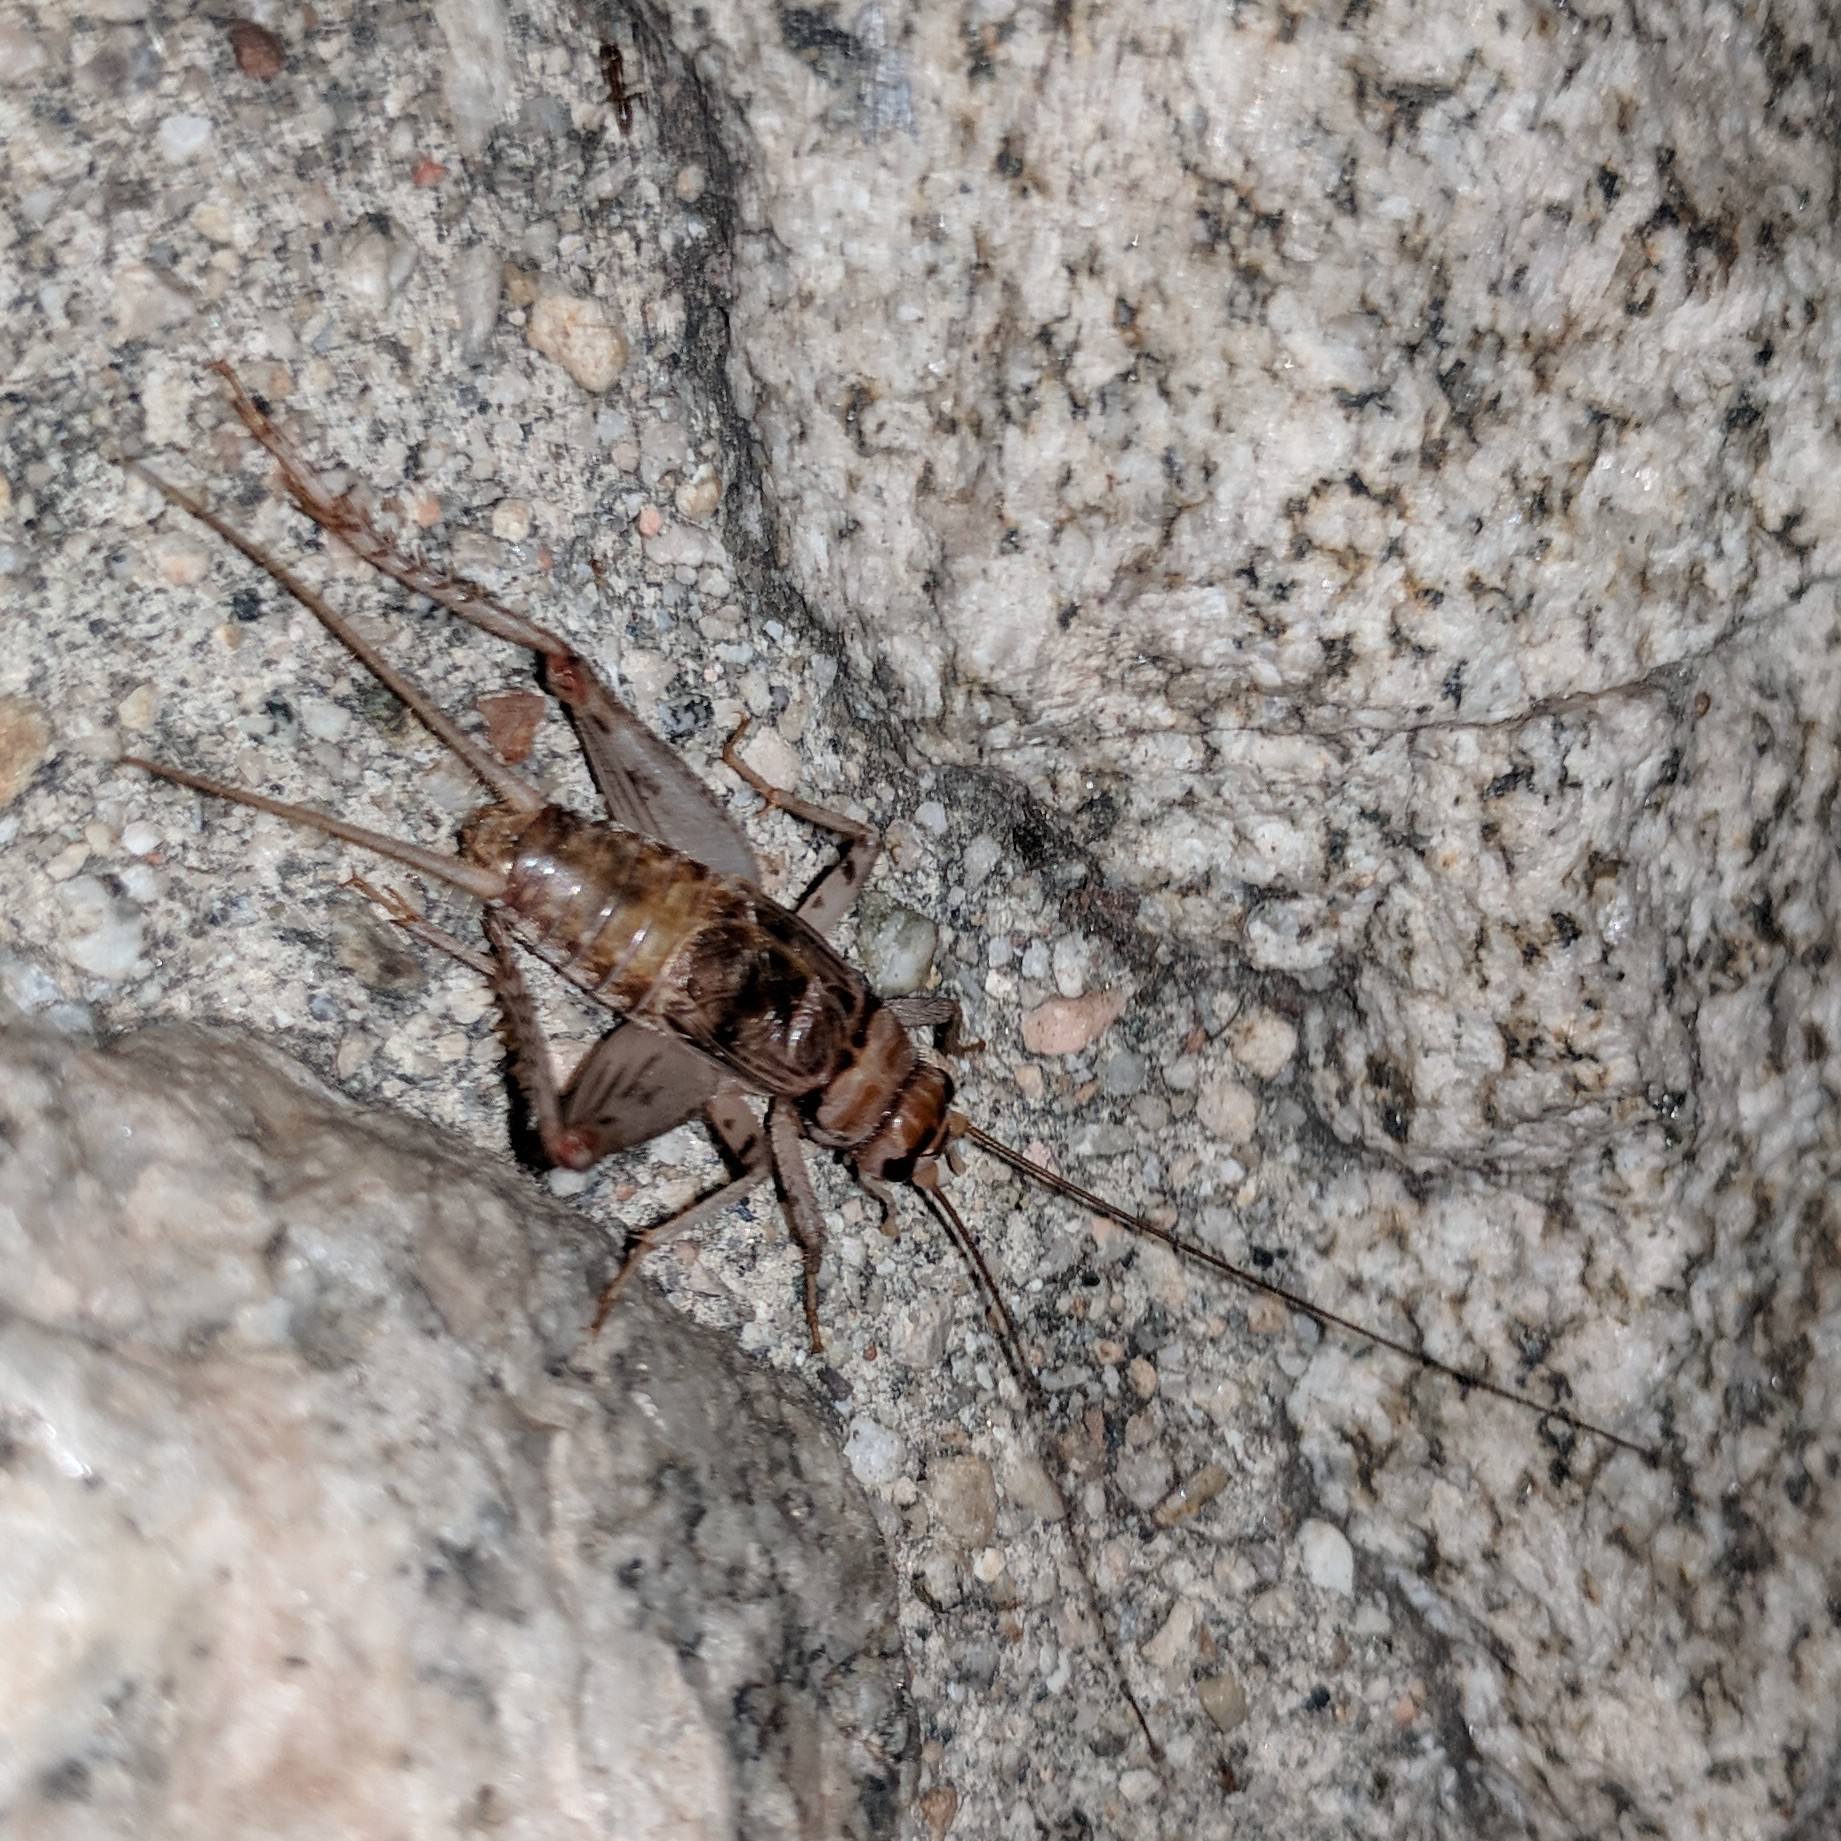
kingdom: Animalia
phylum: Arthropoda
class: Insecta
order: Orthoptera
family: Gryllidae
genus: Gryllodes
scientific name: Gryllodes sigillatus
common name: Tropical house cricket
